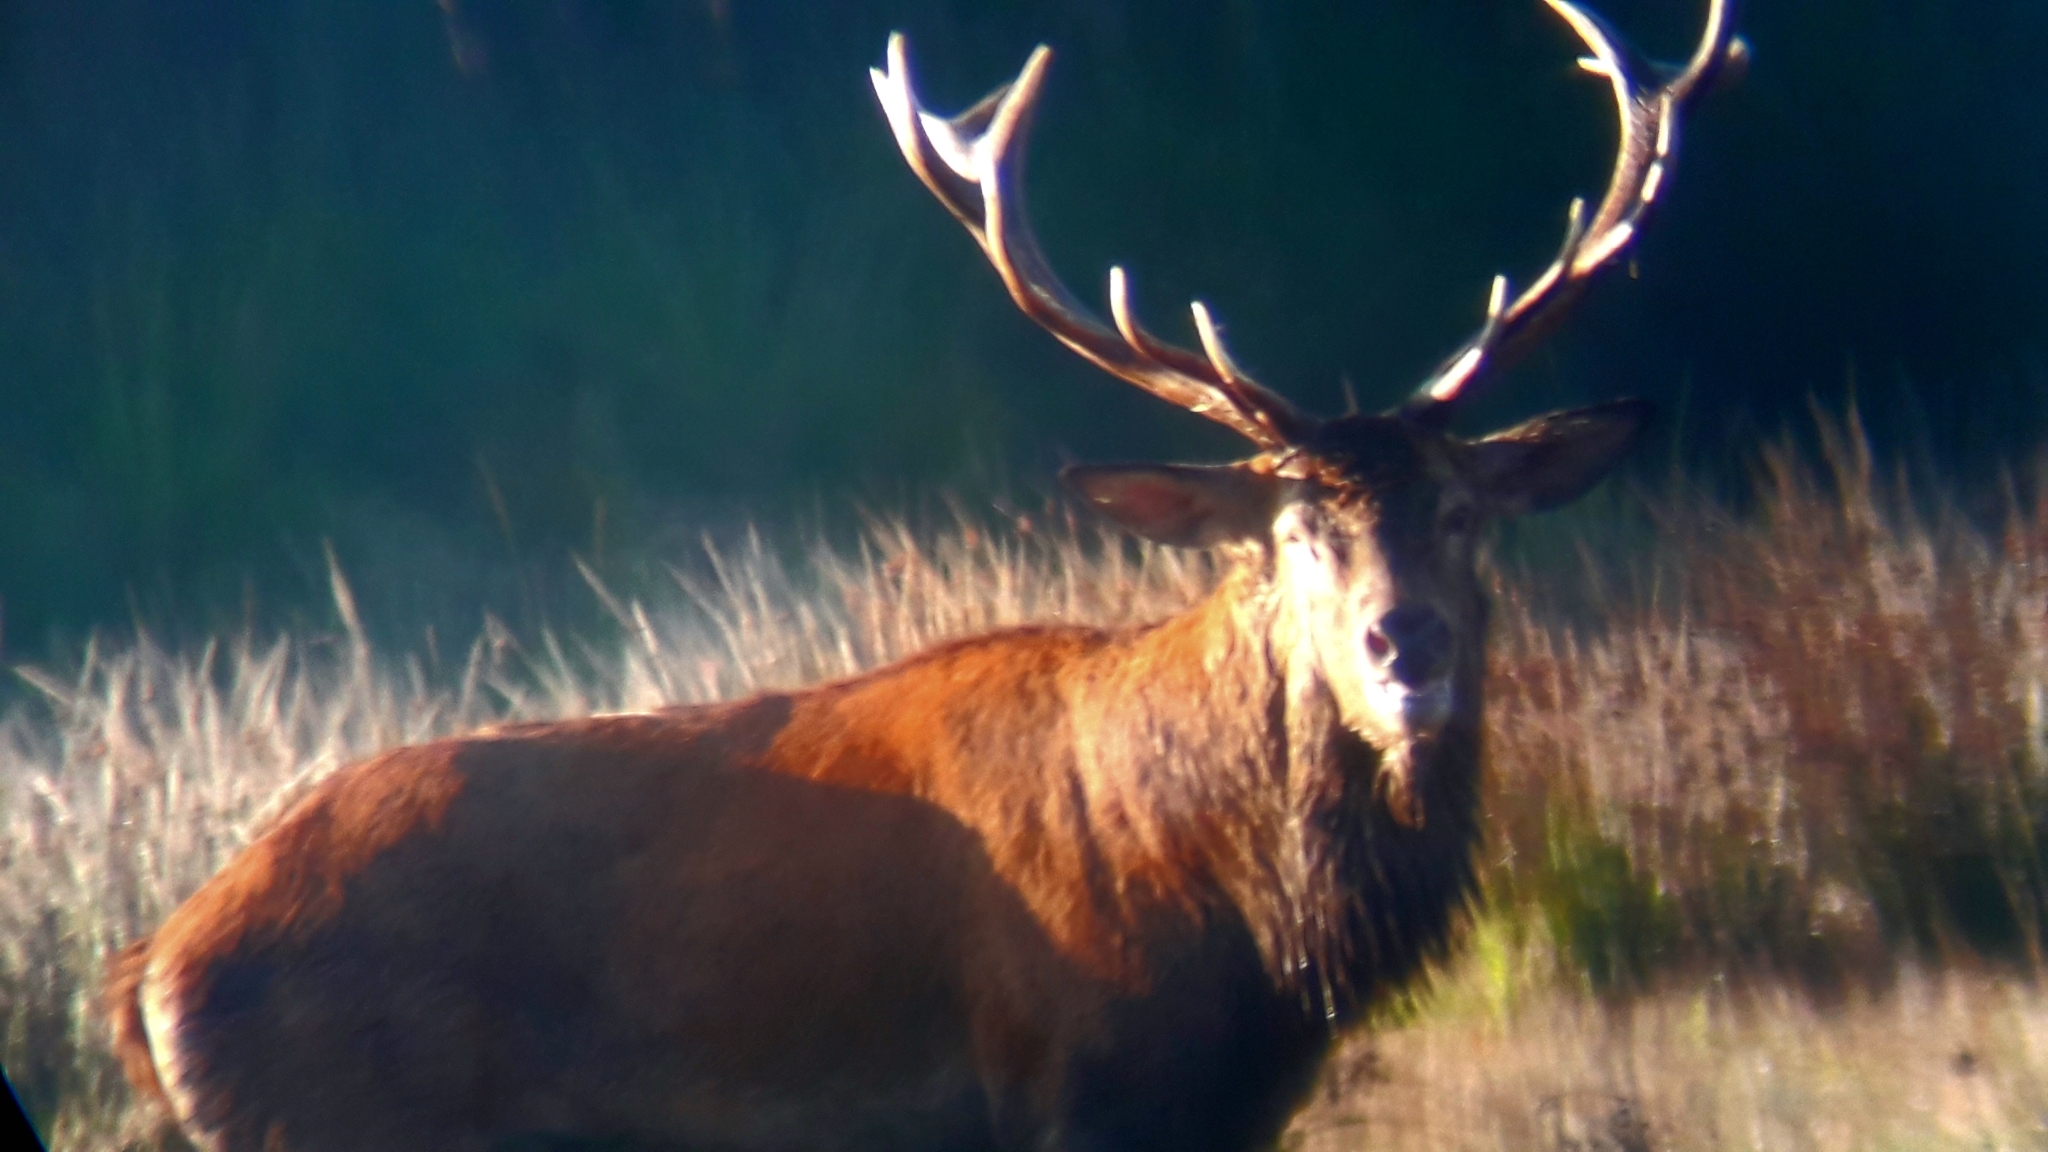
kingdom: Animalia
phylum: Chordata
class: Mammalia
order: Artiodactyla
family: Cervidae
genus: Cervus
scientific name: Cervus elaphus
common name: Red deer
